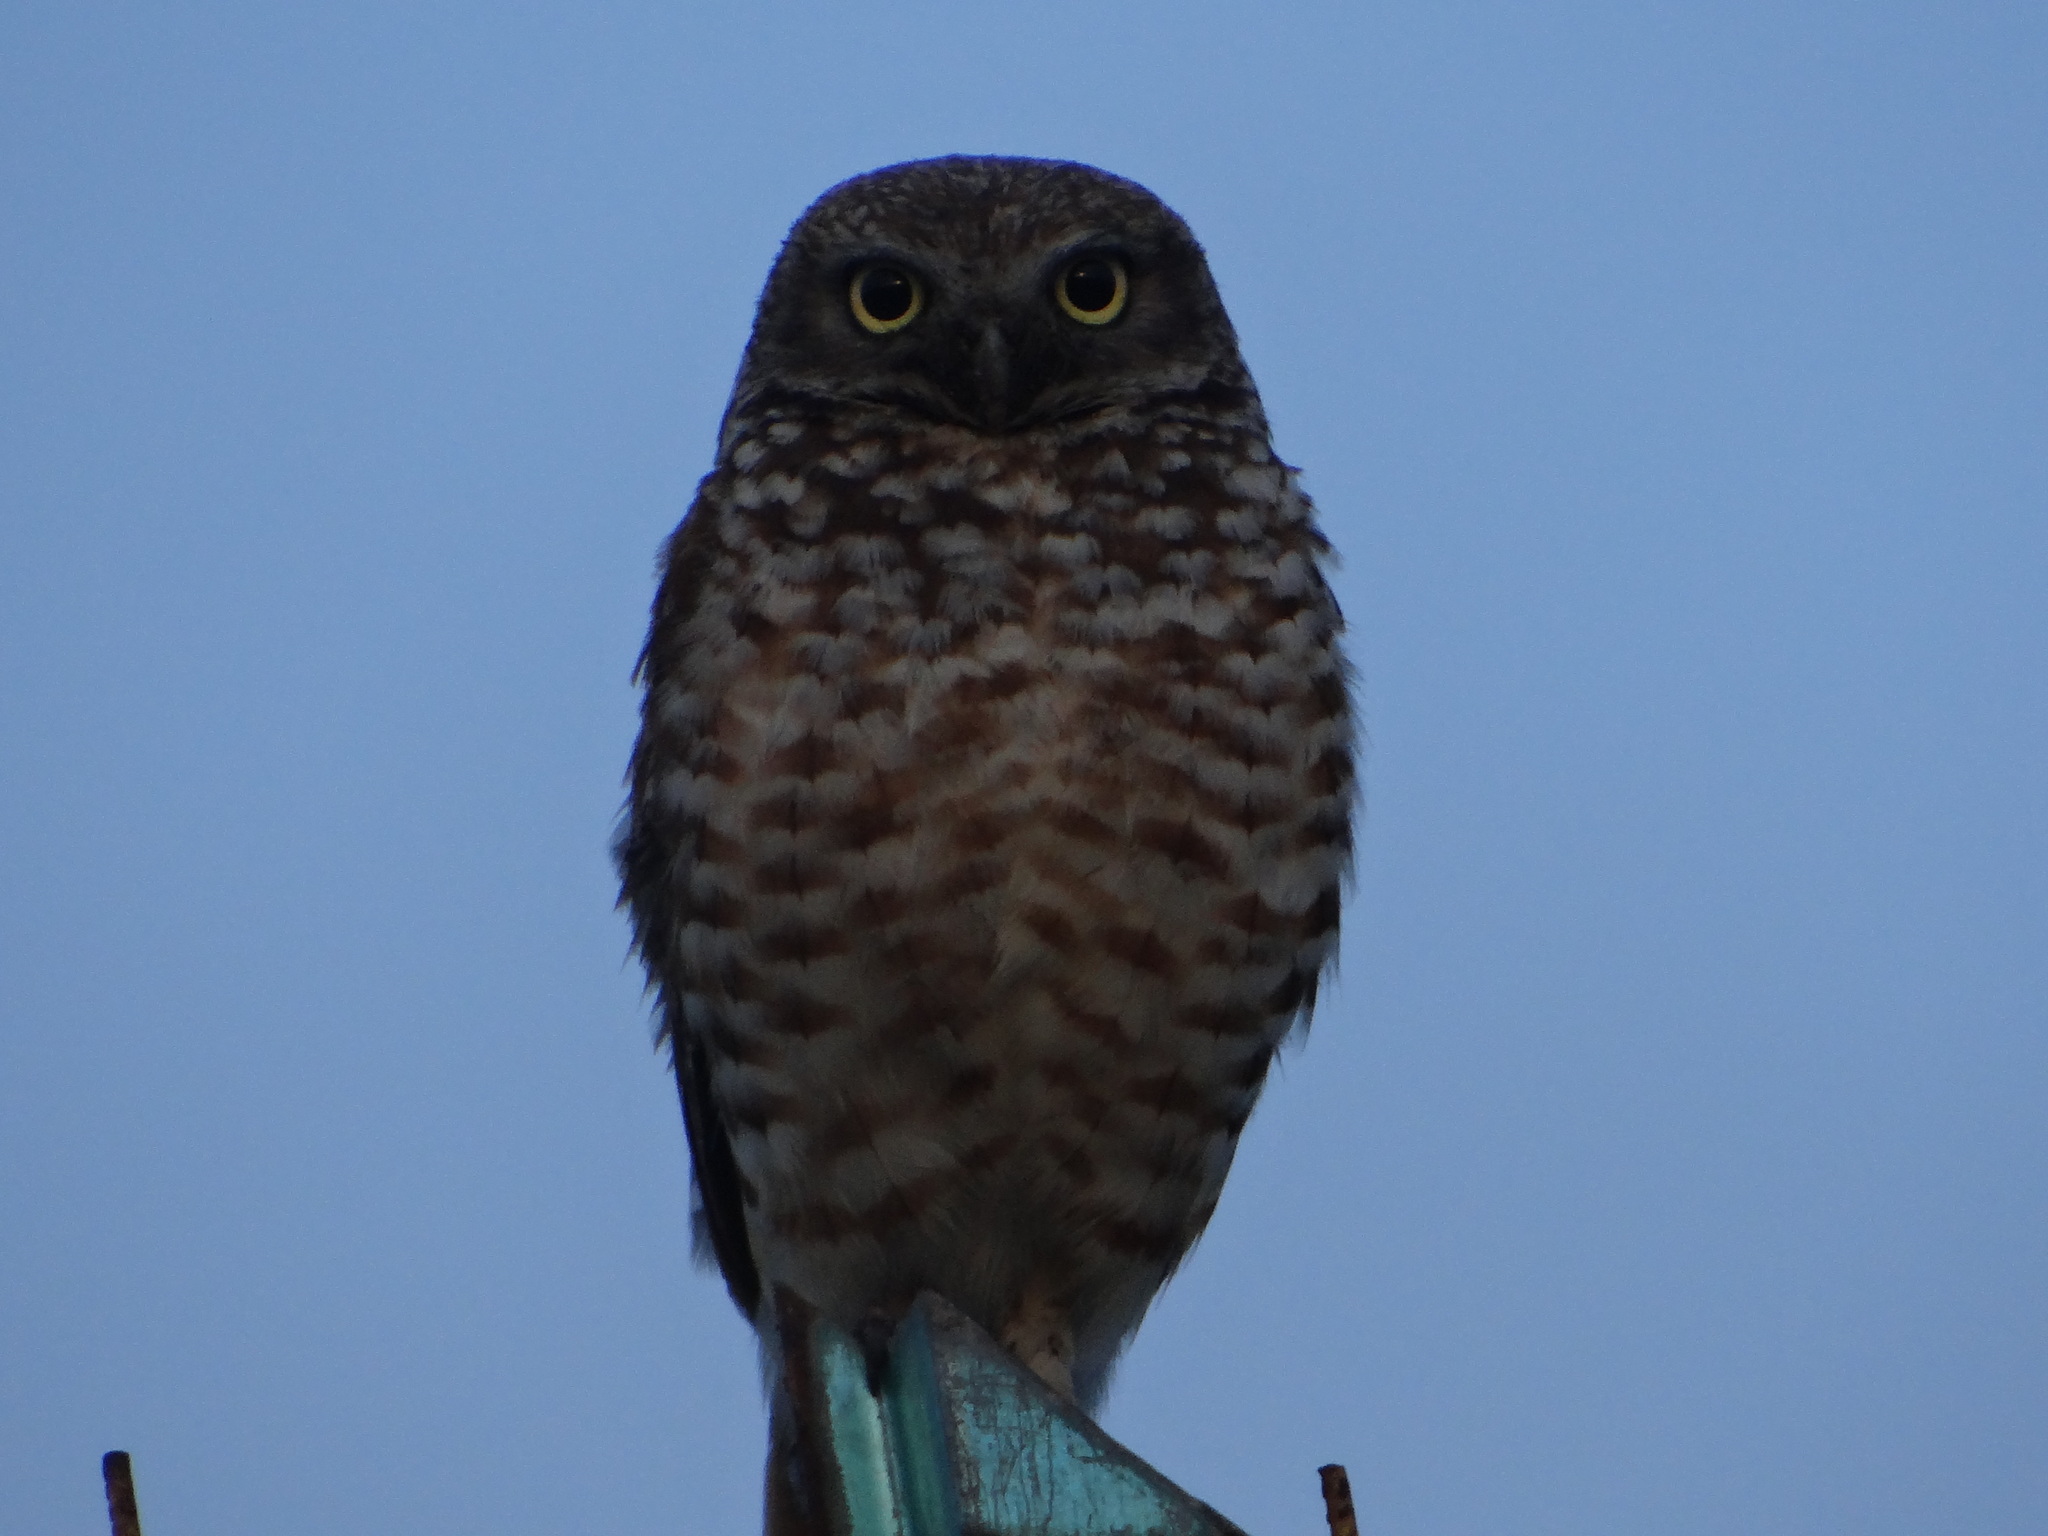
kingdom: Animalia
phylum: Chordata
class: Aves
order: Strigiformes
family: Strigidae
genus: Athene
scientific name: Athene cunicularia
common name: Burrowing owl
